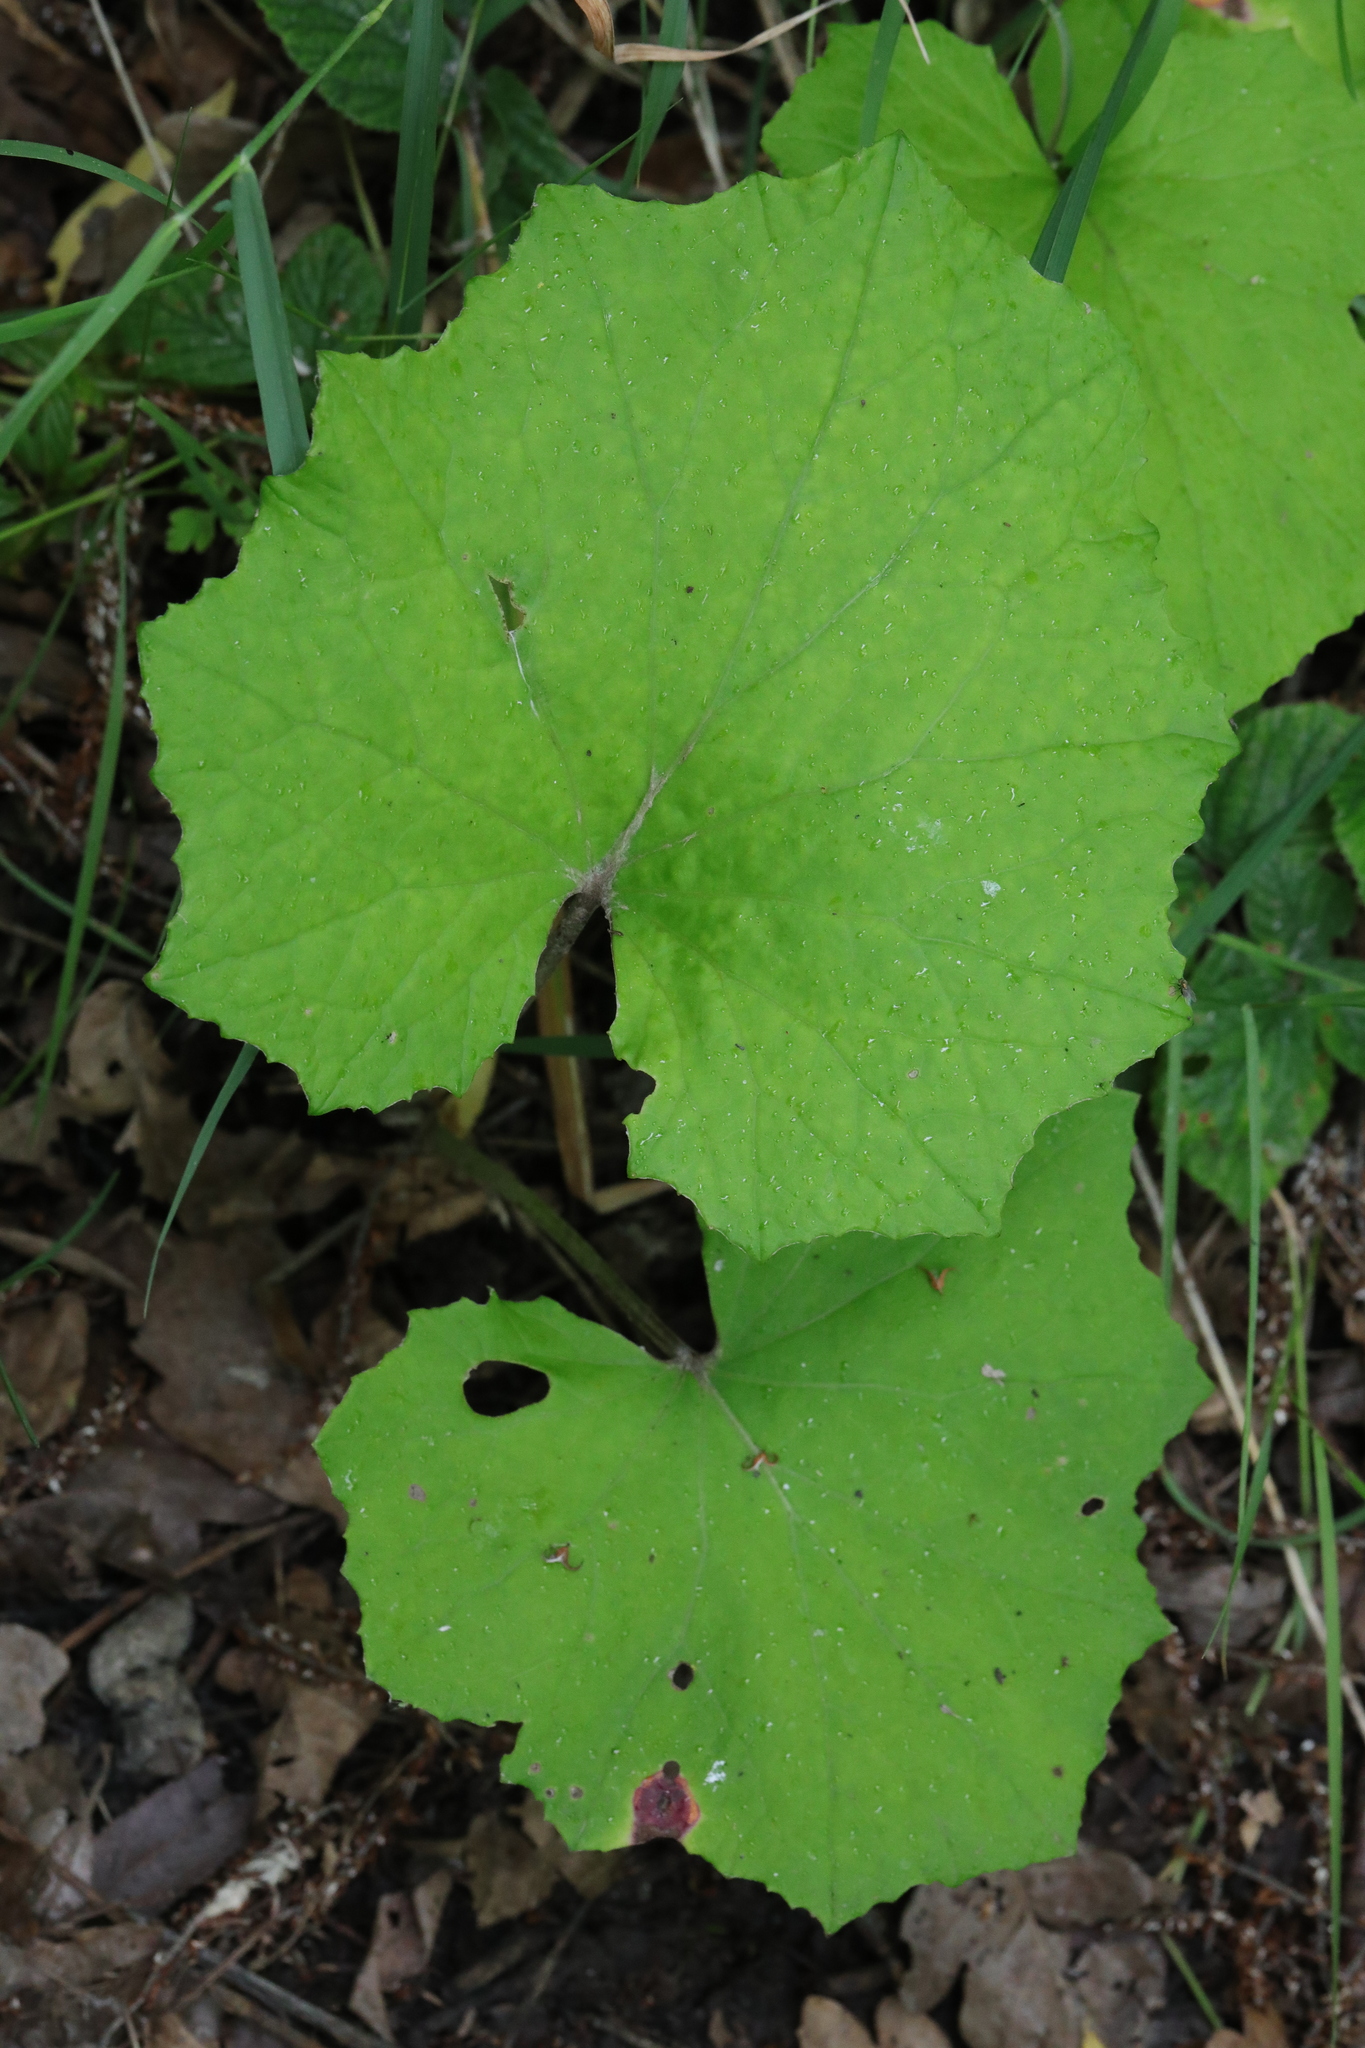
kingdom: Plantae
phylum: Tracheophyta
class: Magnoliopsida
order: Asterales
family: Asteraceae
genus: Tussilago
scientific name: Tussilago farfara
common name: Coltsfoot
